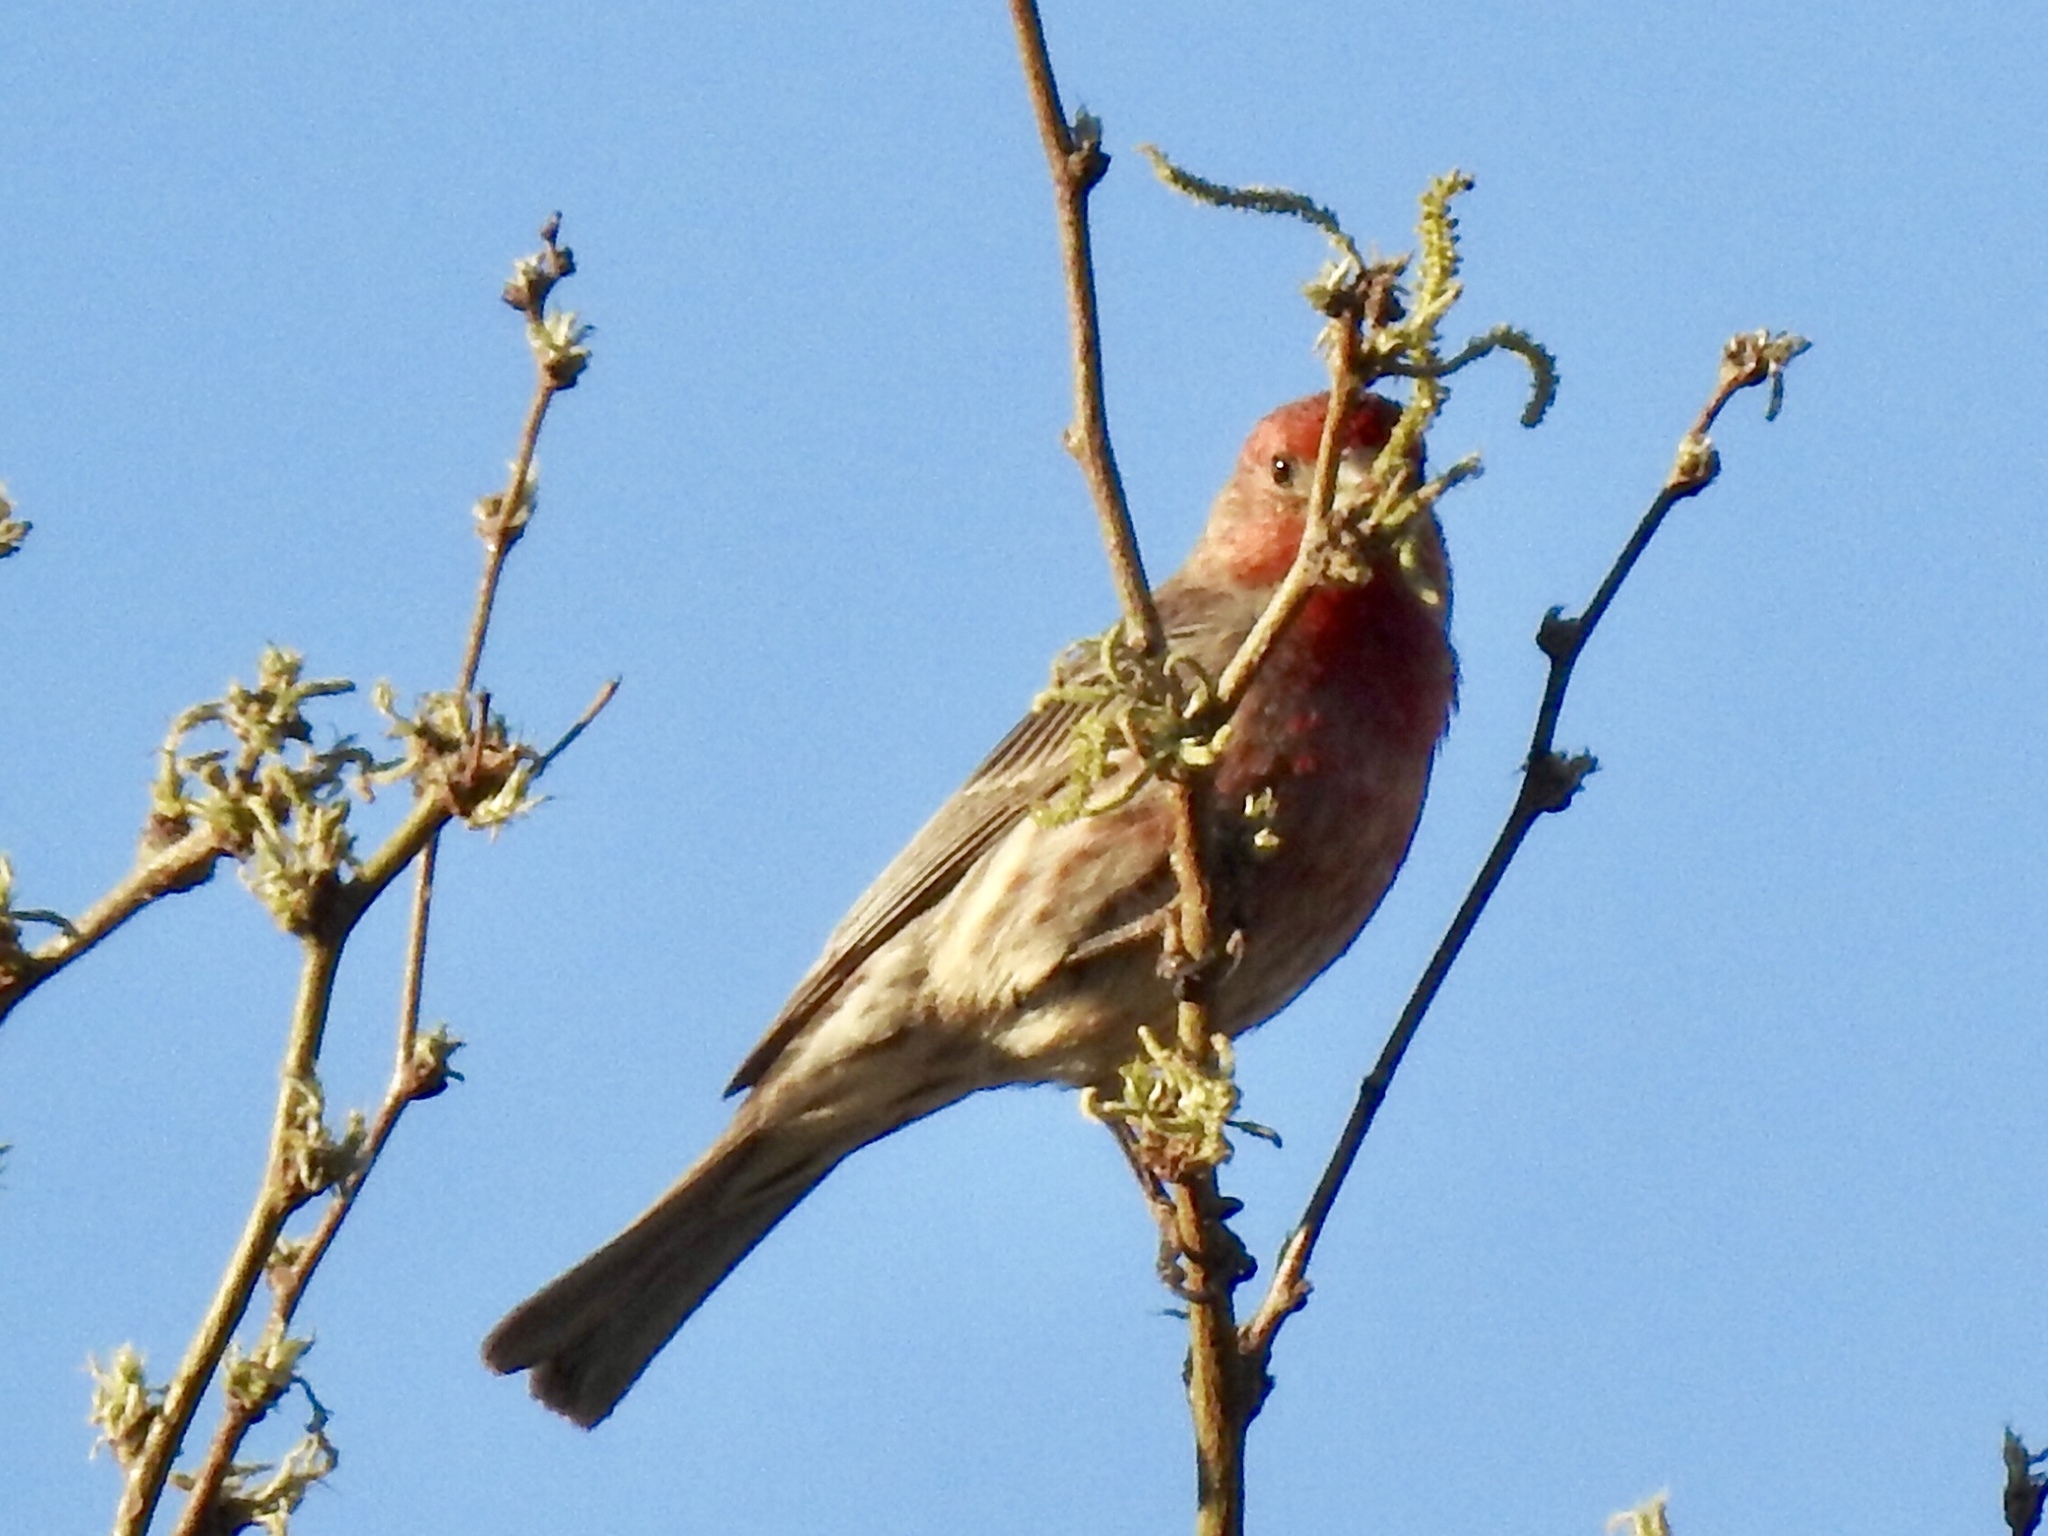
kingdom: Animalia
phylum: Chordata
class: Aves
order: Passeriformes
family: Fringillidae
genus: Haemorhous
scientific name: Haemorhous mexicanus
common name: House finch
